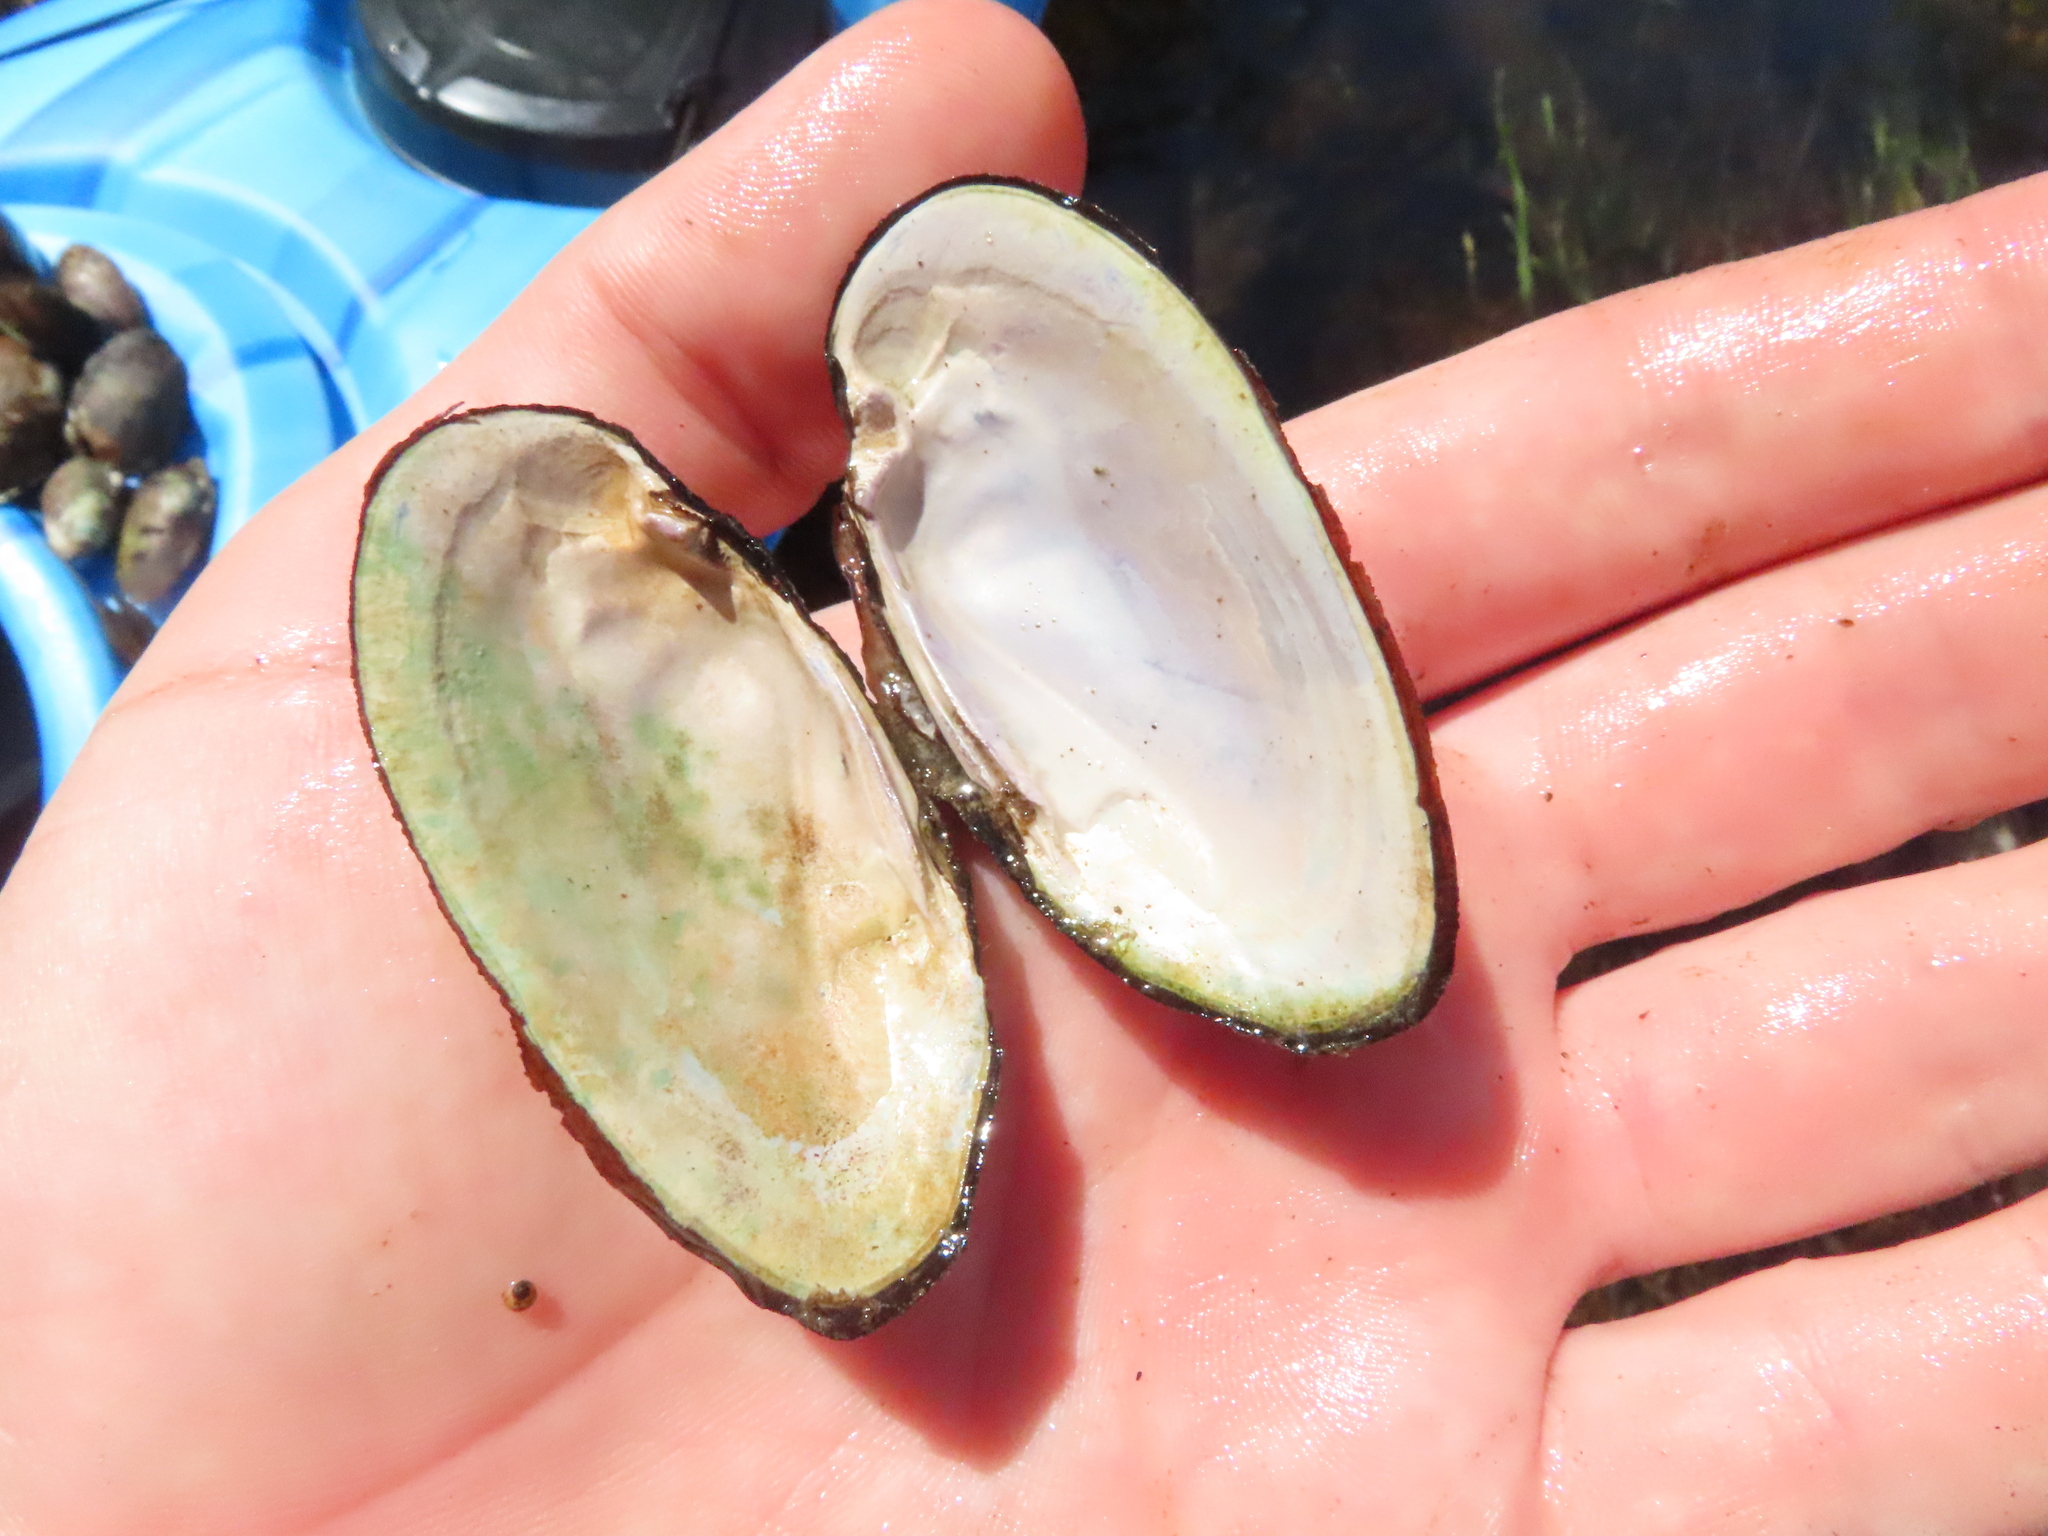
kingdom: Animalia
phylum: Mollusca
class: Bivalvia
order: Unionida
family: Unionidae
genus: Eurynia
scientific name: Eurynia dilatata
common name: Spike
